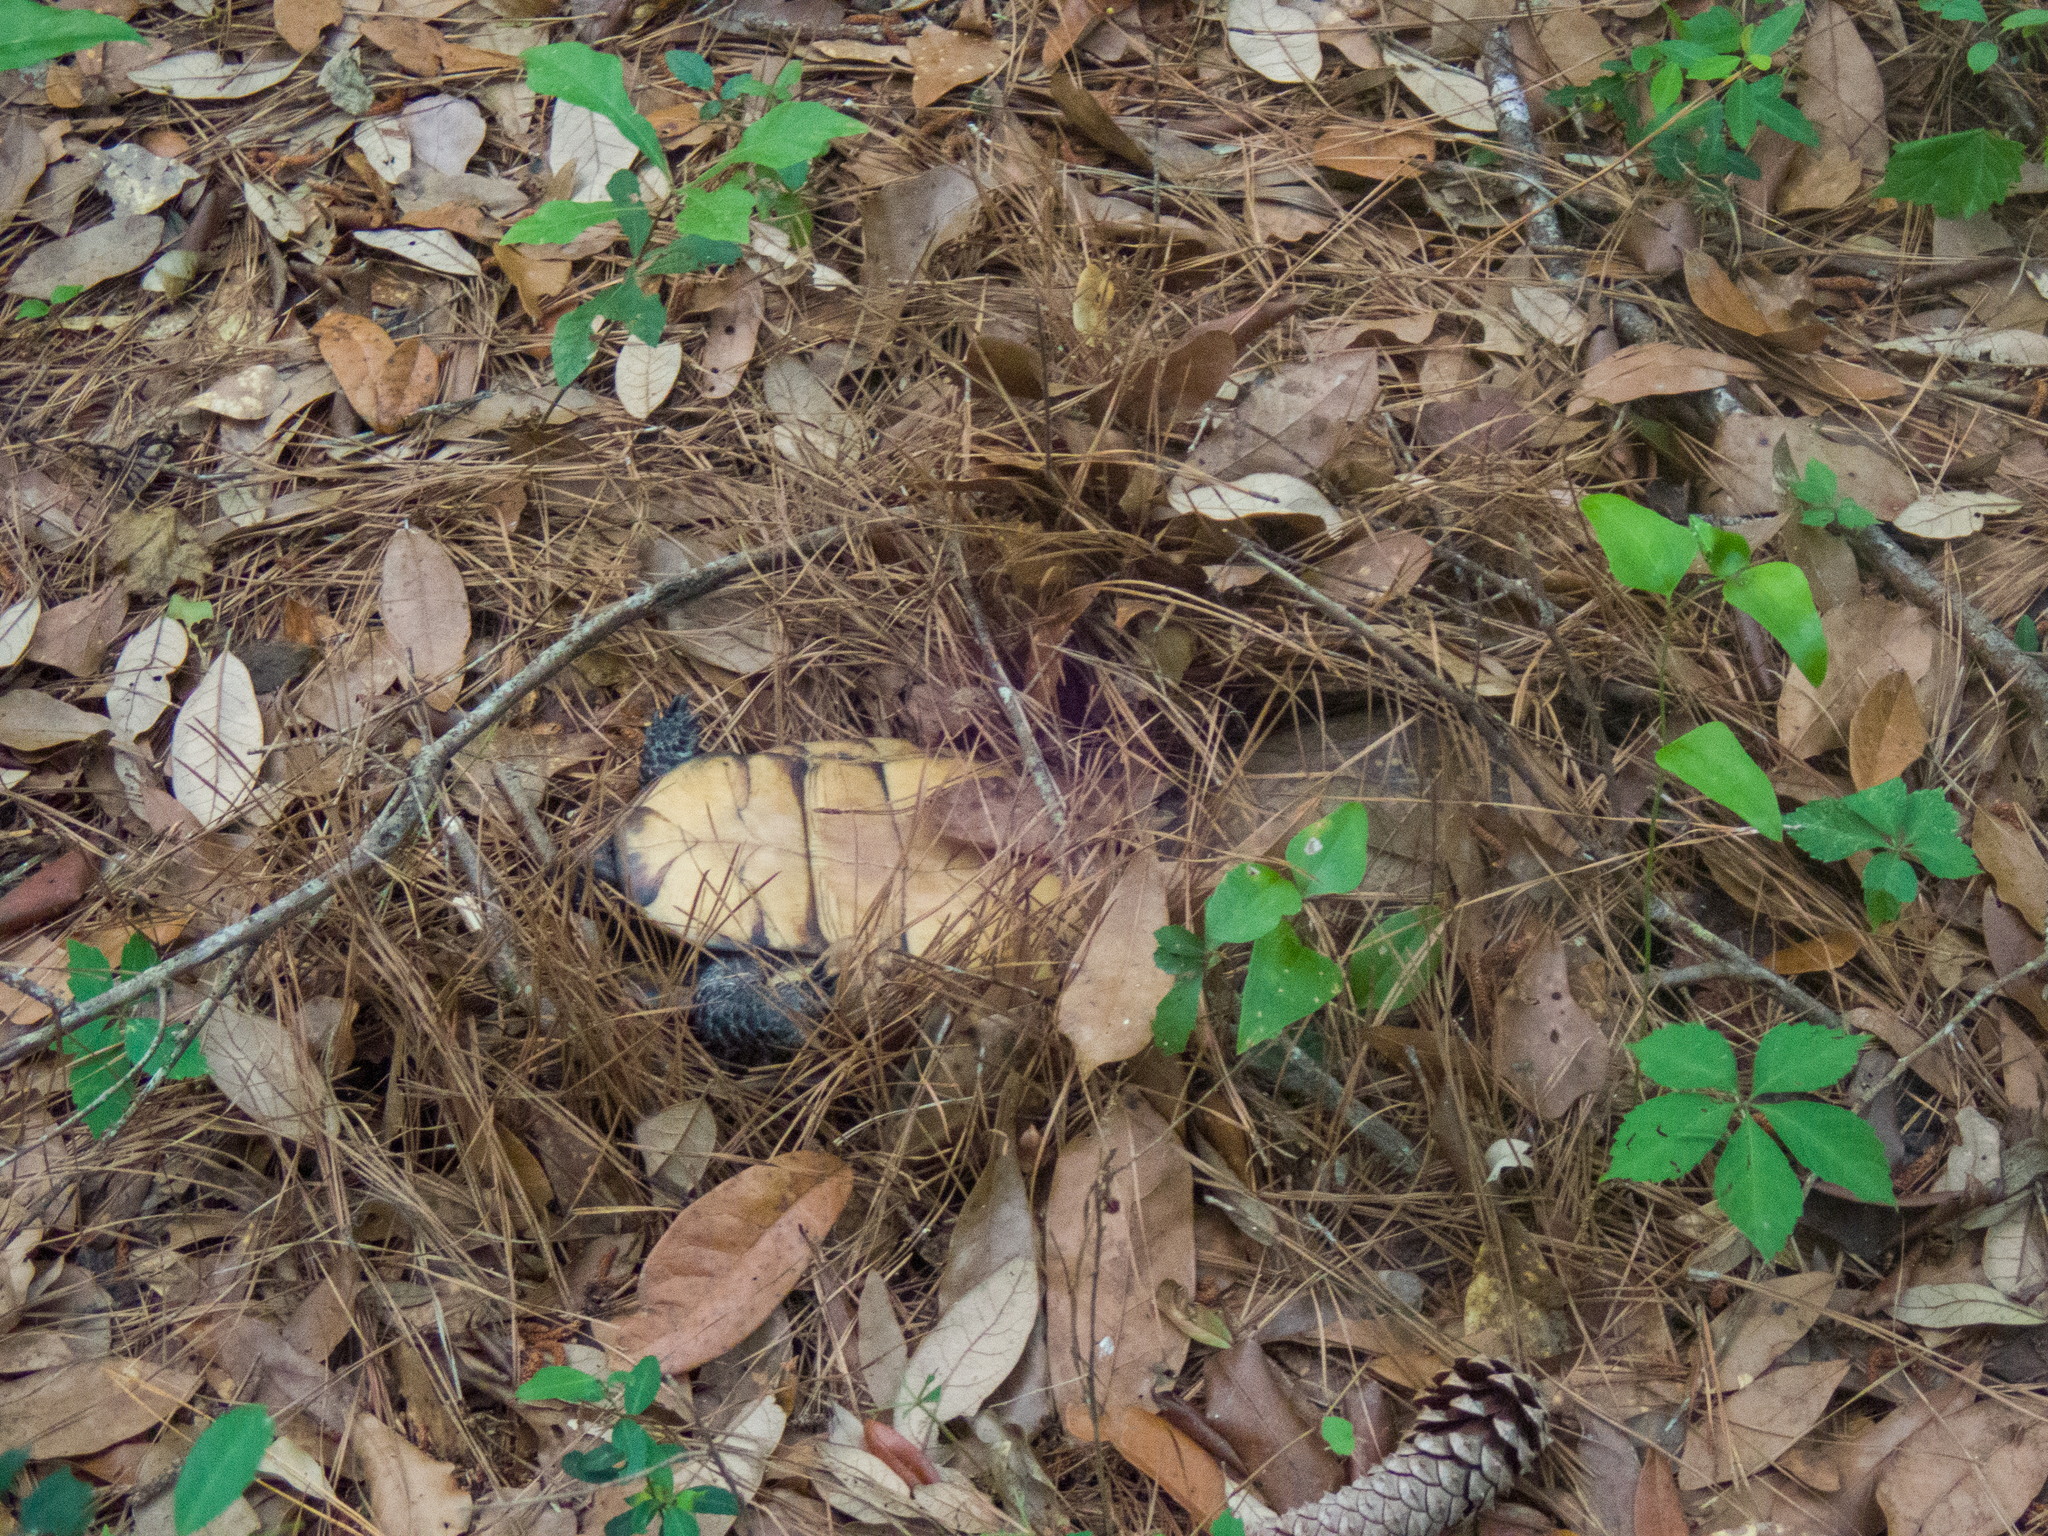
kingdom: Animalia
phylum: Chordata
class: Testudines
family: Emydidae
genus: Terrapene
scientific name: Terrapene carolina
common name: Common box turtle
